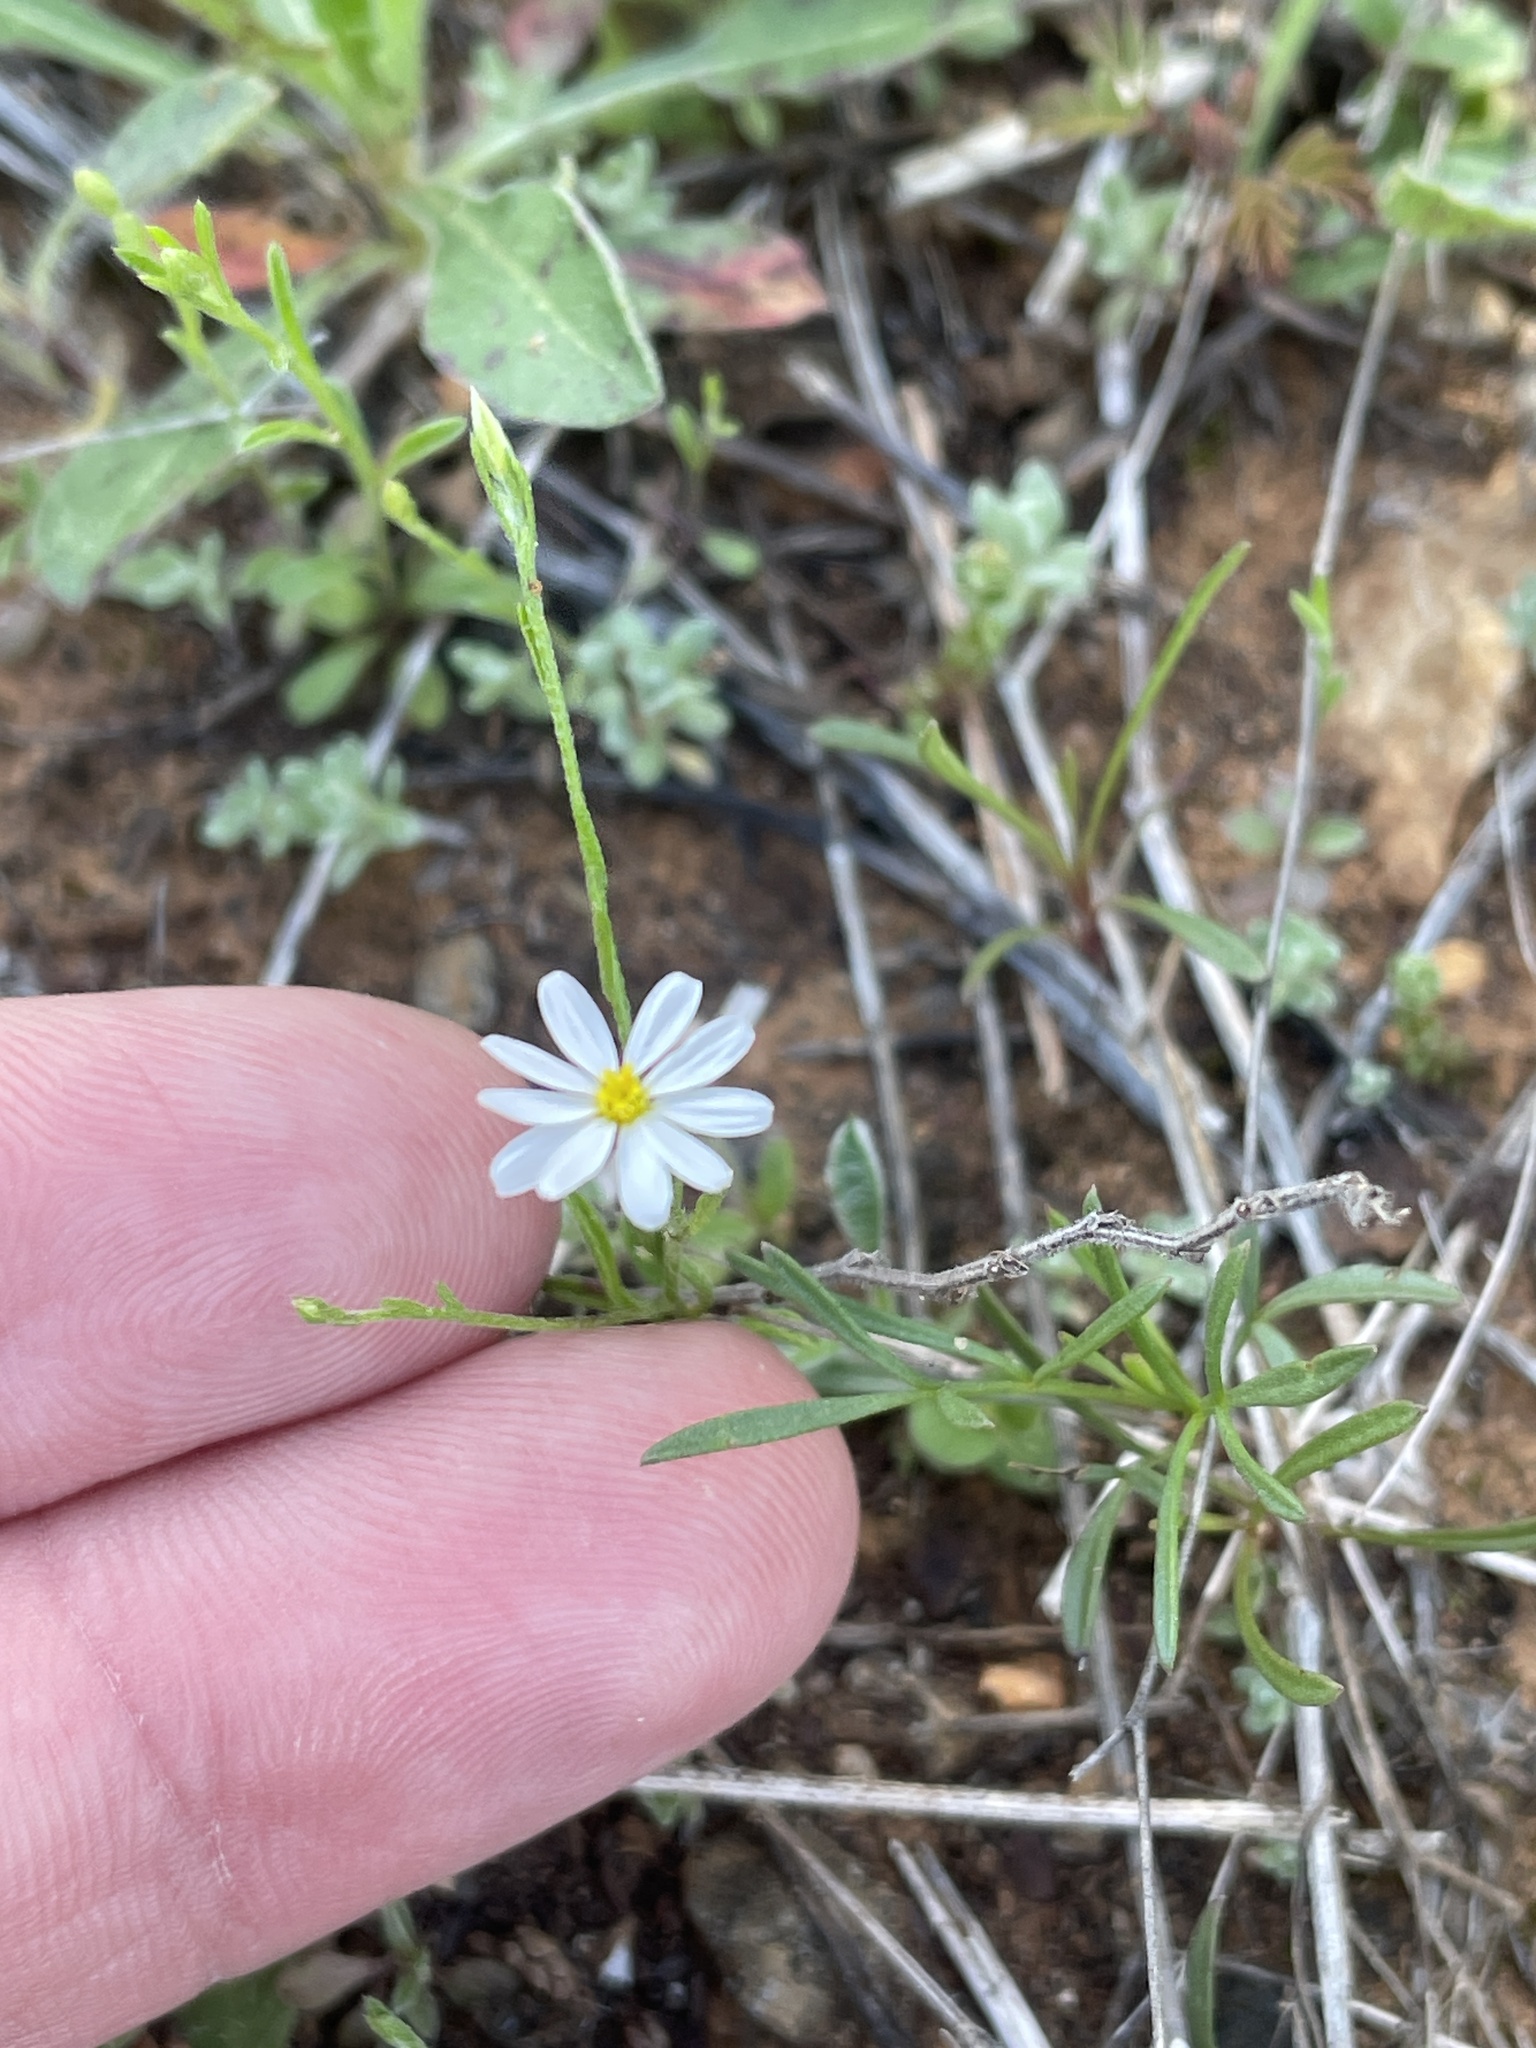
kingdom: Plantae
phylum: Tracheophyta
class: Magnoliopsida
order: Asterales
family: Asteraceae
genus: Chaetopappa
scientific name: Chaetopappa asteroides
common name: Tiny lazy daisy
